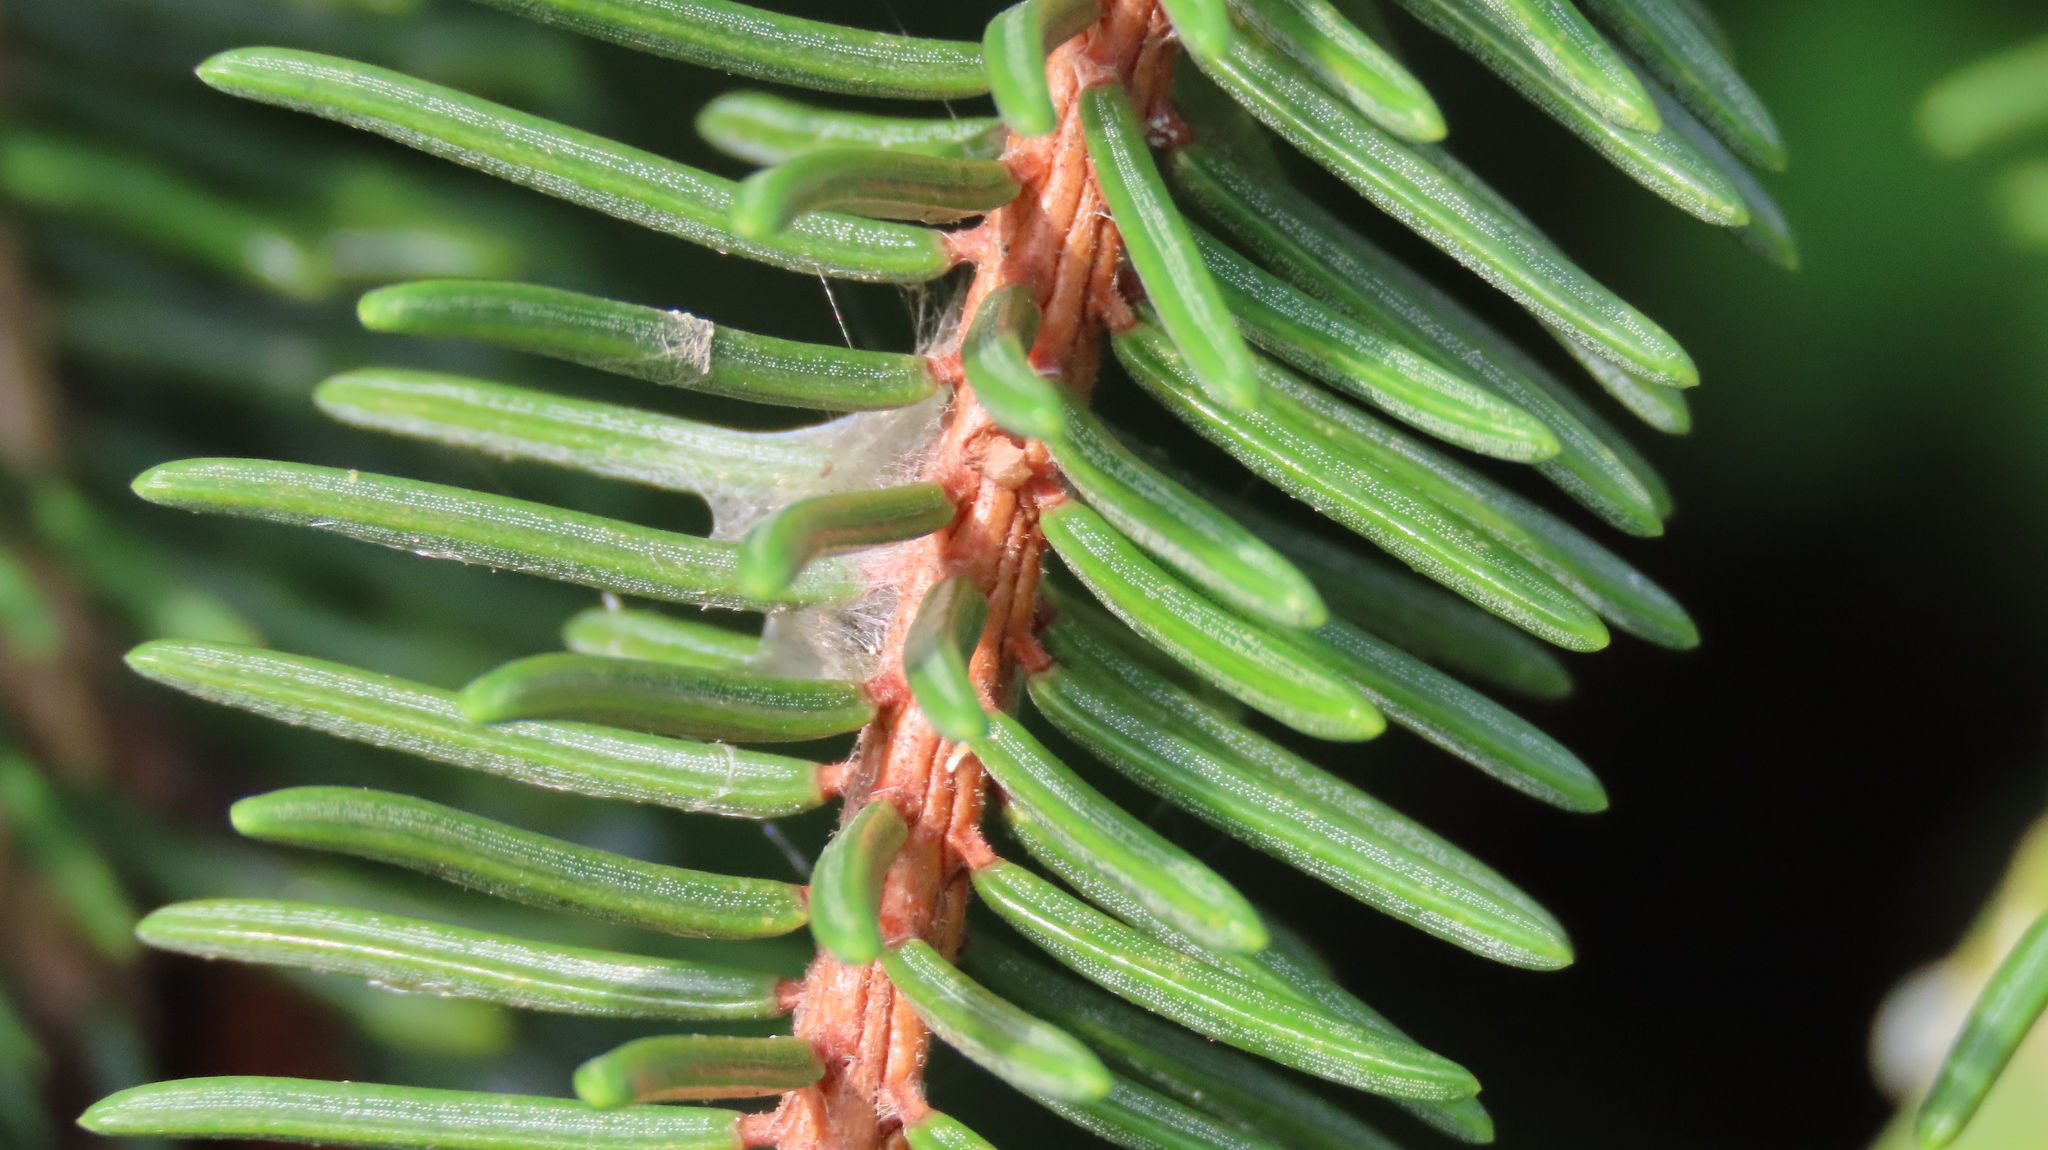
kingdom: Plantae
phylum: Tracheophyta
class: Pinopsida
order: Pinales
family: Pinaceae
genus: Picea
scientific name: Picea abies
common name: Norway spruce
